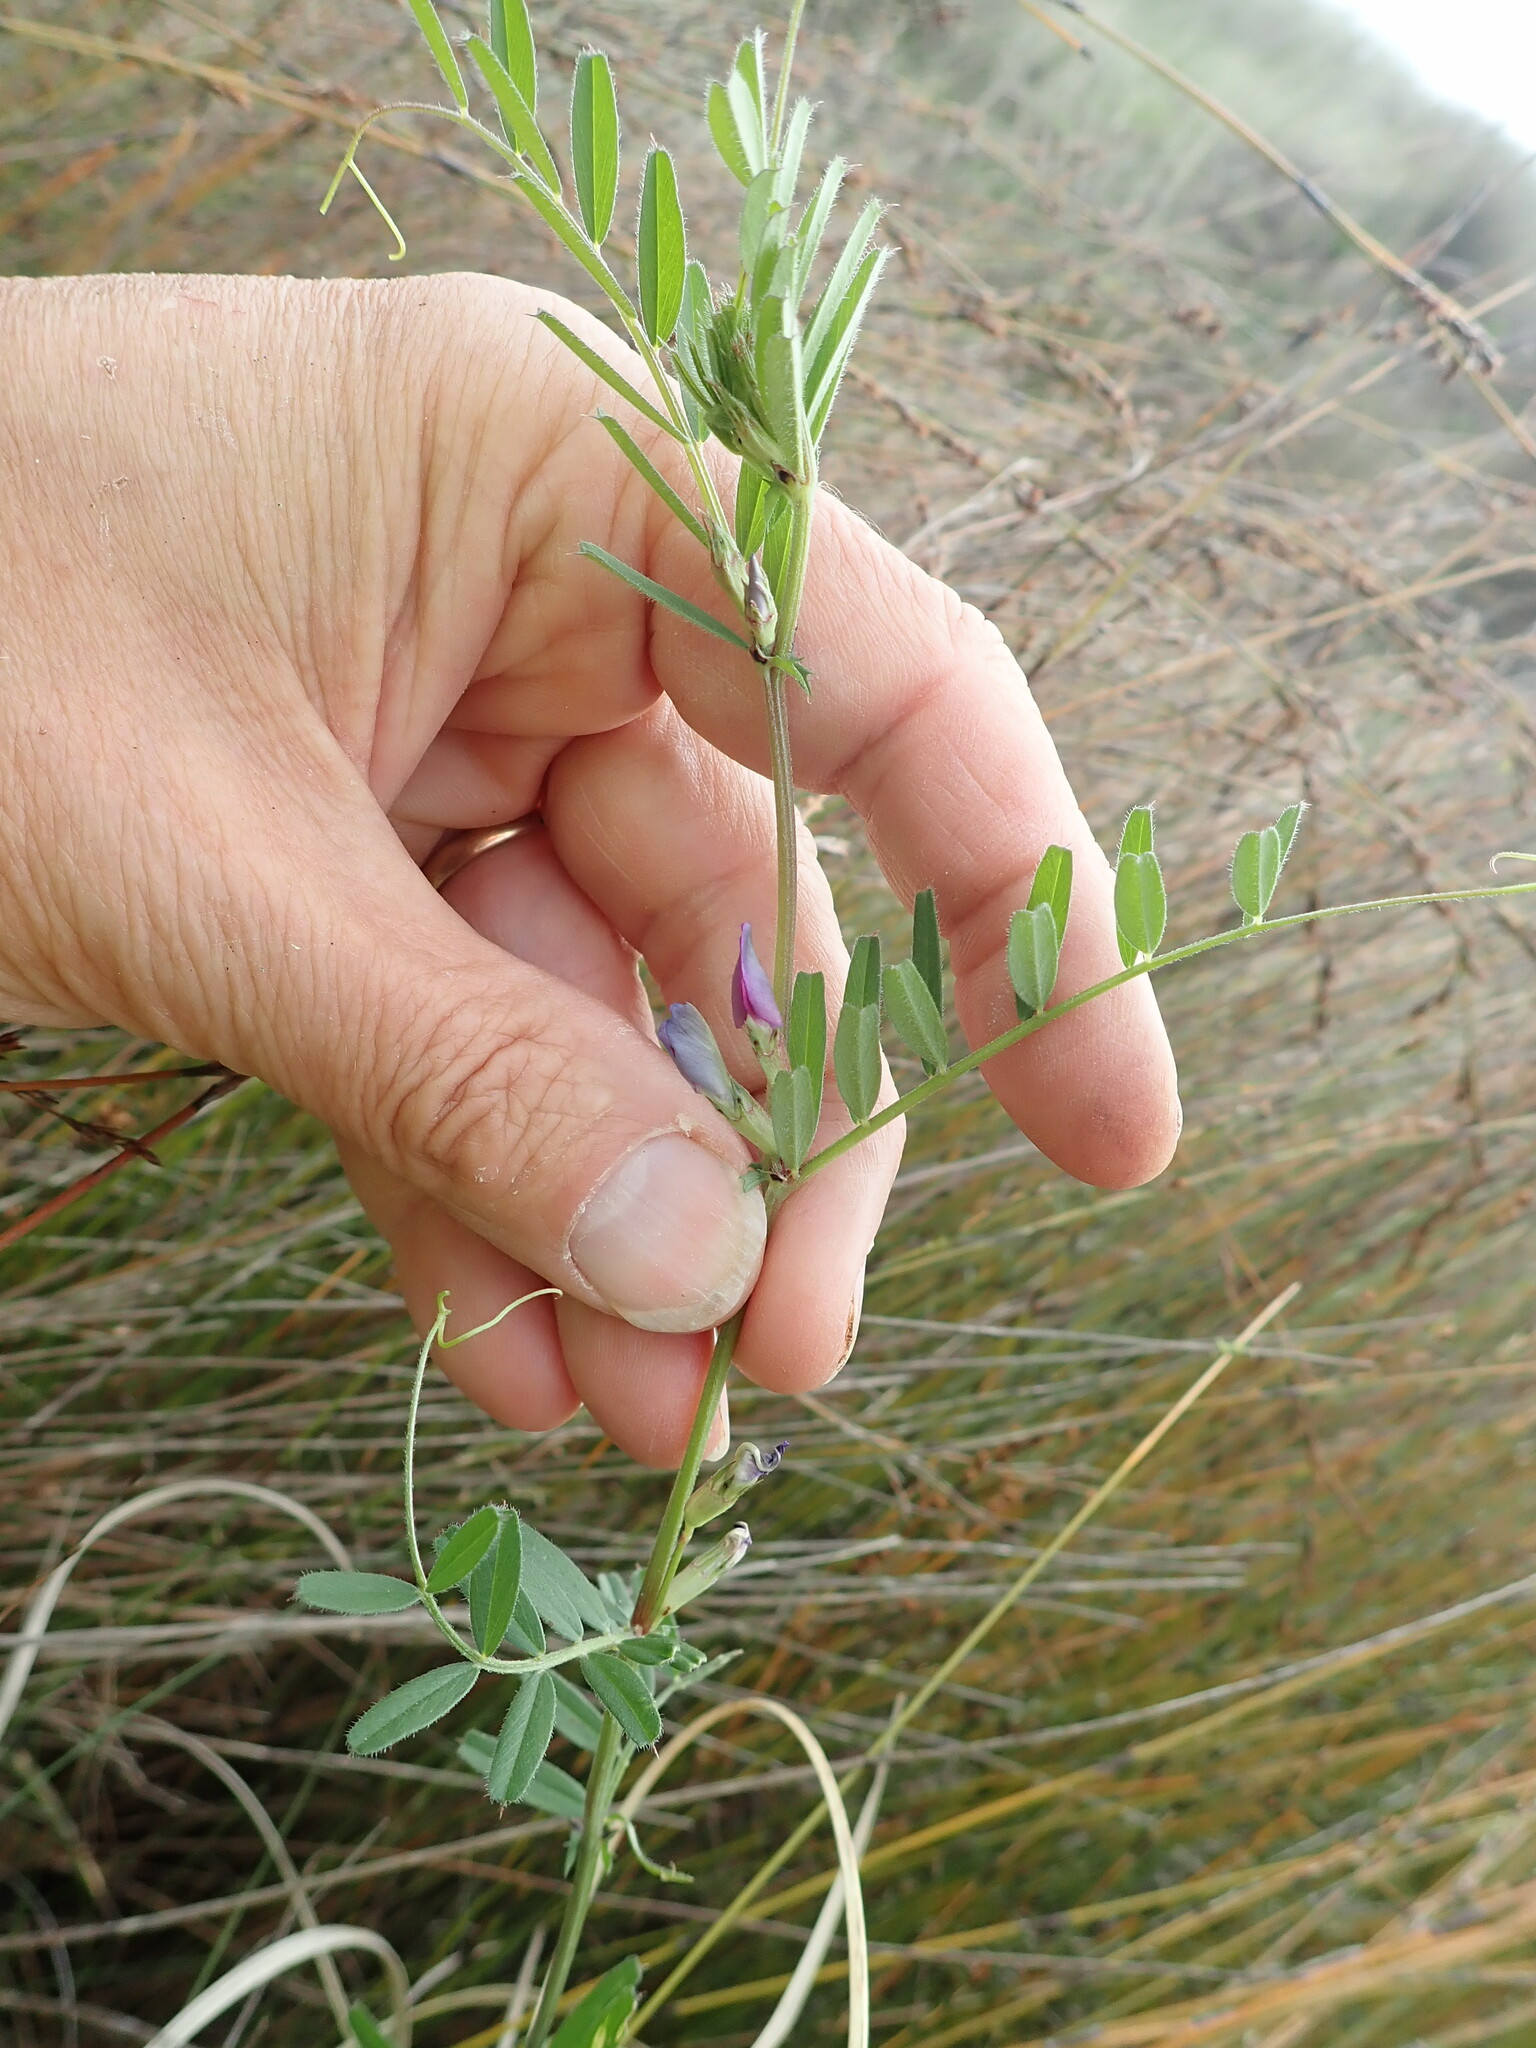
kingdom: Plantae
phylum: Tracheophyta
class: Magnoliopsida
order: Fabales
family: Fabaceae
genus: Vicia
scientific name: Vicia sativa
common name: Garden vetch
